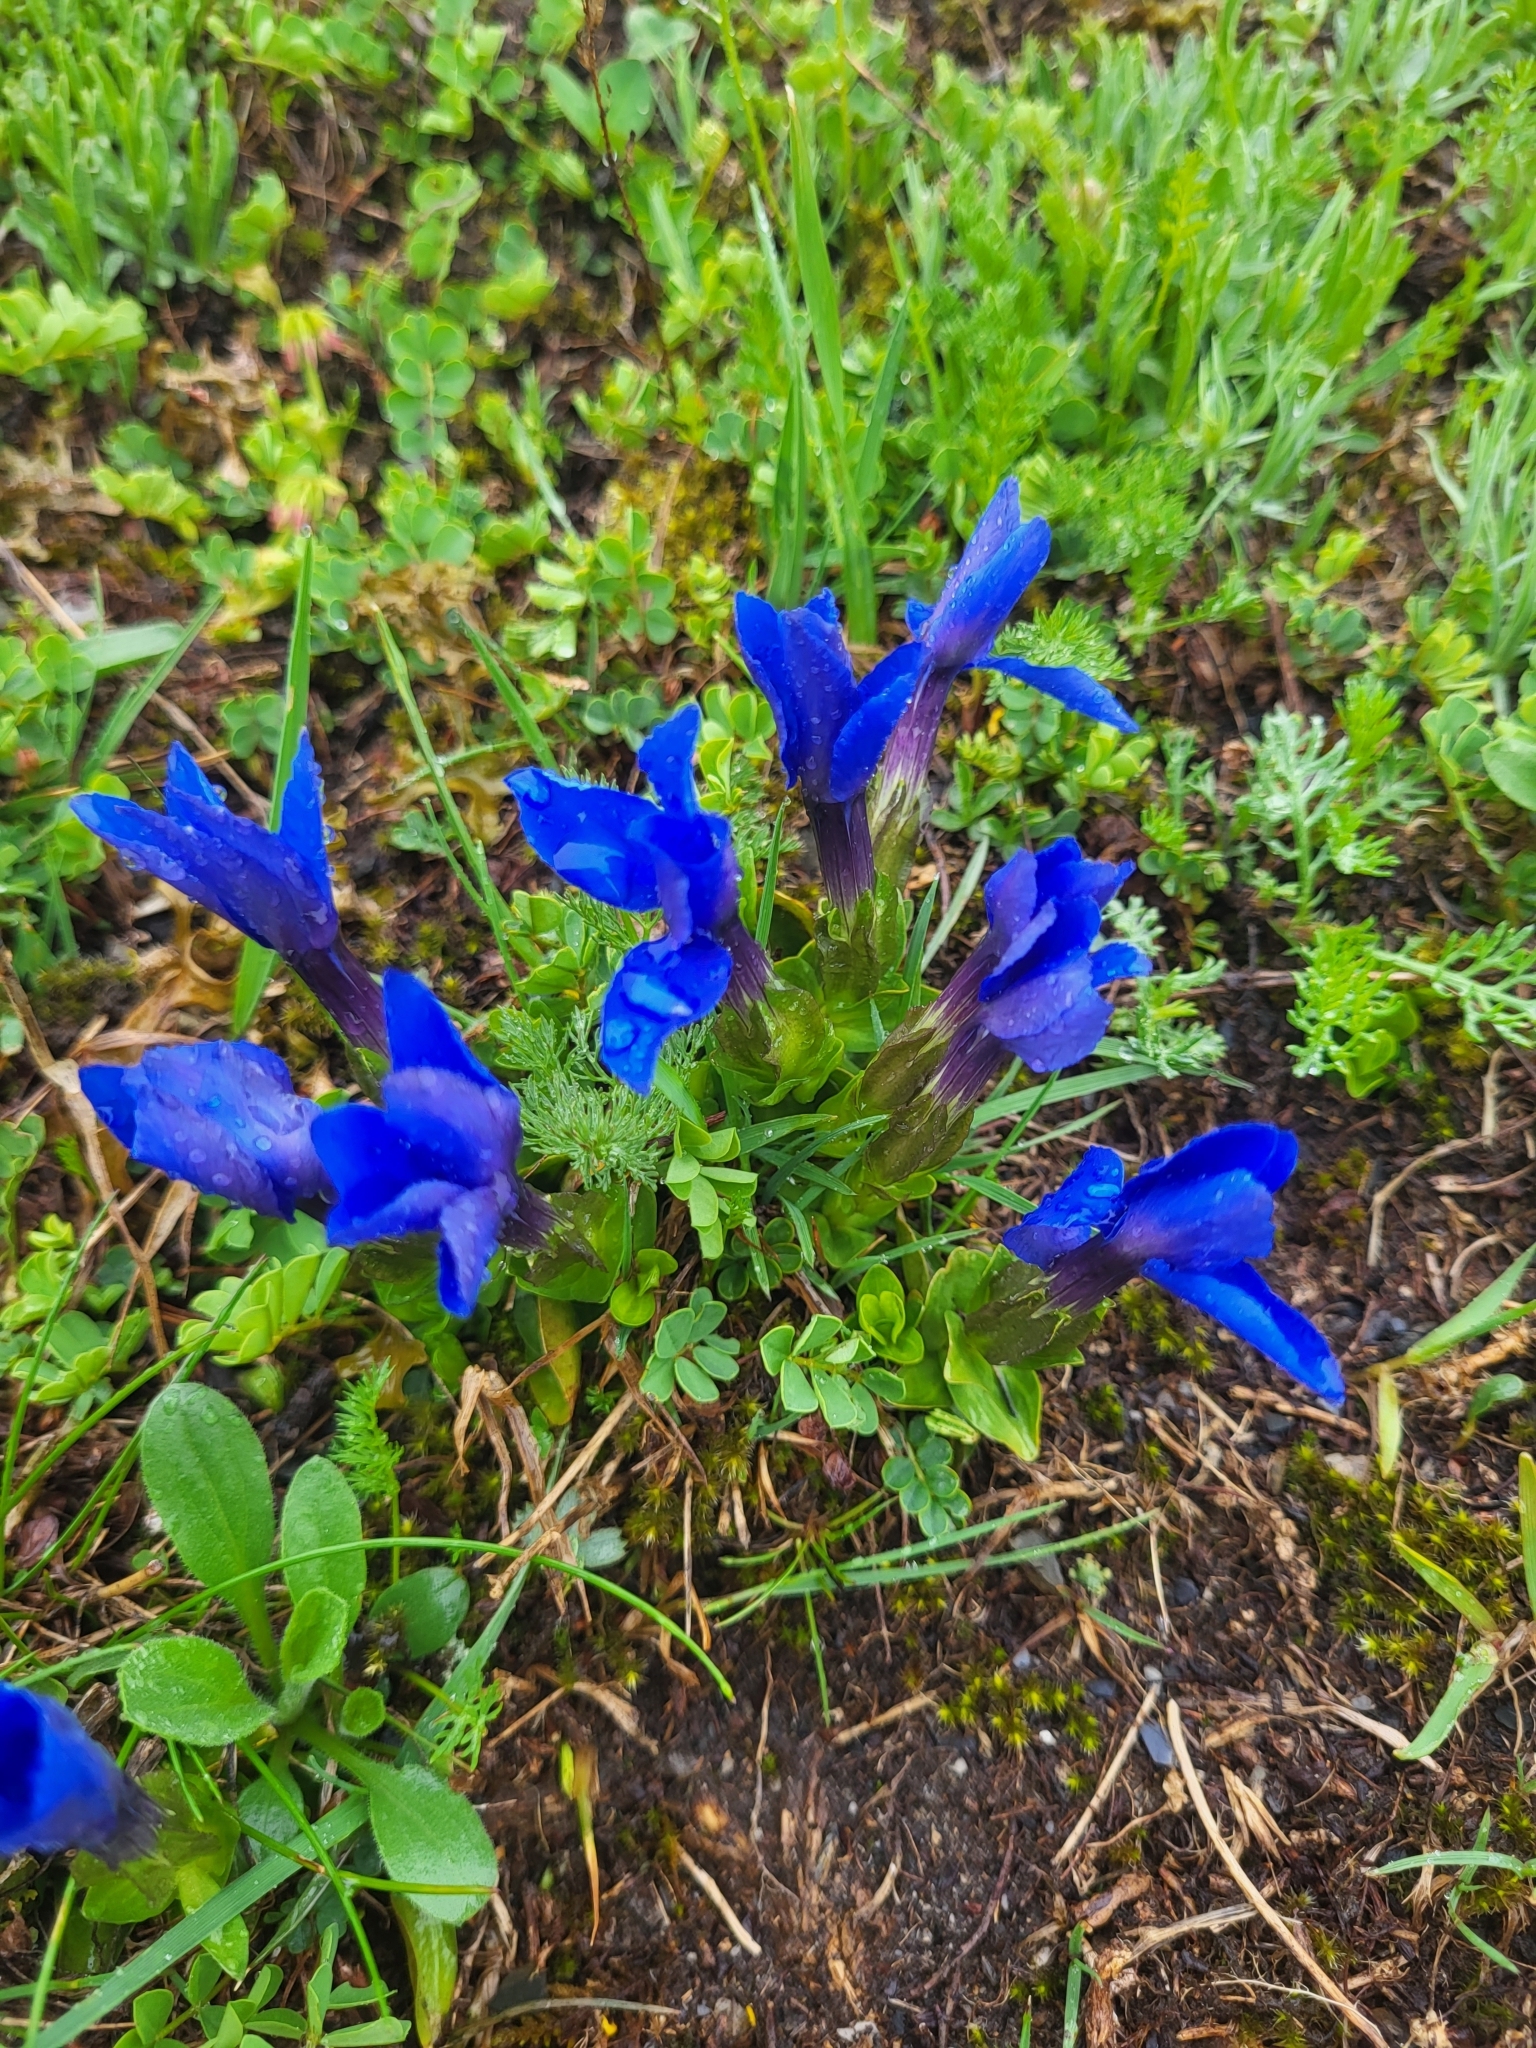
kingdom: Plantae
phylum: Tracheophyta
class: Magnoliopsida
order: Gentianales
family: Gentianaceae
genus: Gentiana
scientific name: Gentiana verna
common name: Spring gentian
